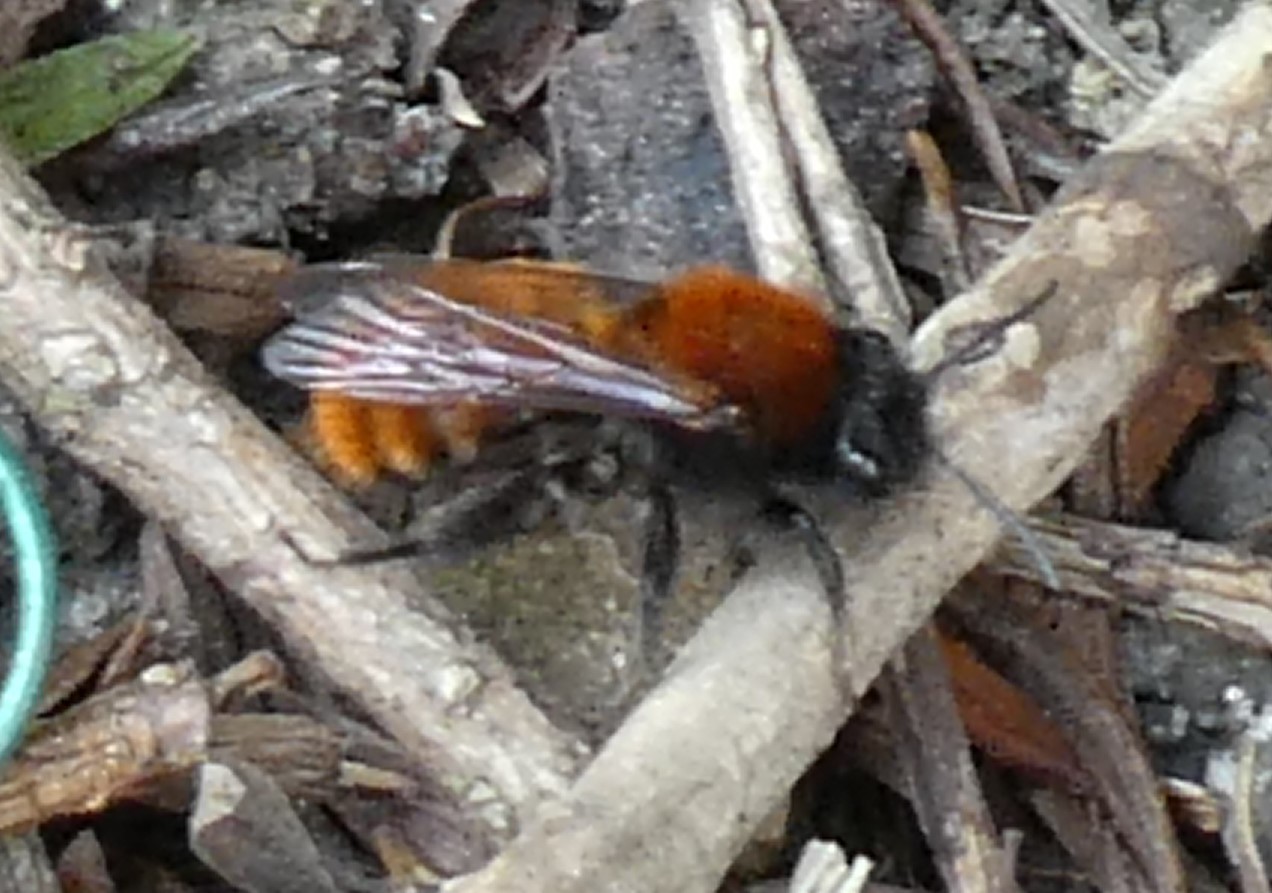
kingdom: Animalia
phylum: Arthropoda
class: Insecta
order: Hymenoptera
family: Andrenidae
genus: Andrena
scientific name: Andrena fulva
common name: Tawny mining bee
